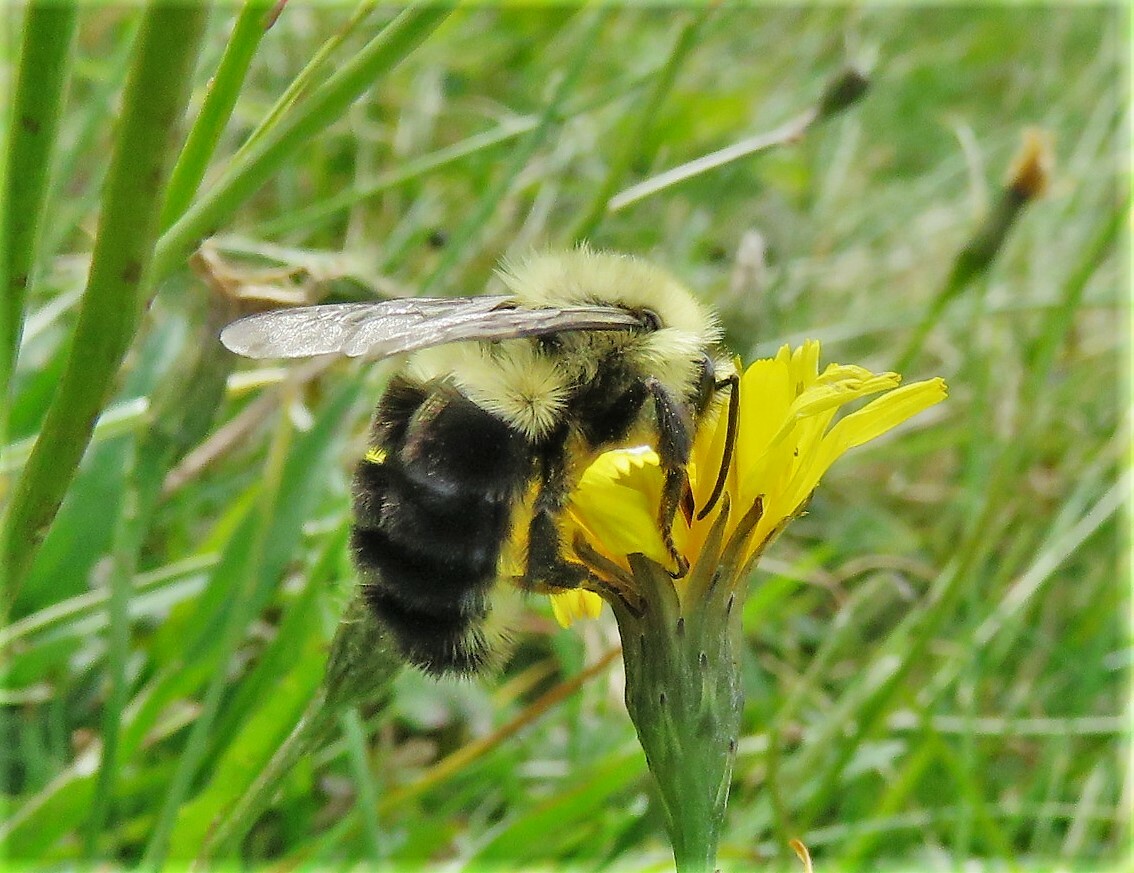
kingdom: Animalia
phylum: Arthropoda
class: Insecta
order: Hymenoptera
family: Apidae
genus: Bombus
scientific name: Bombus impatiens
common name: Common eastern bumble bee
